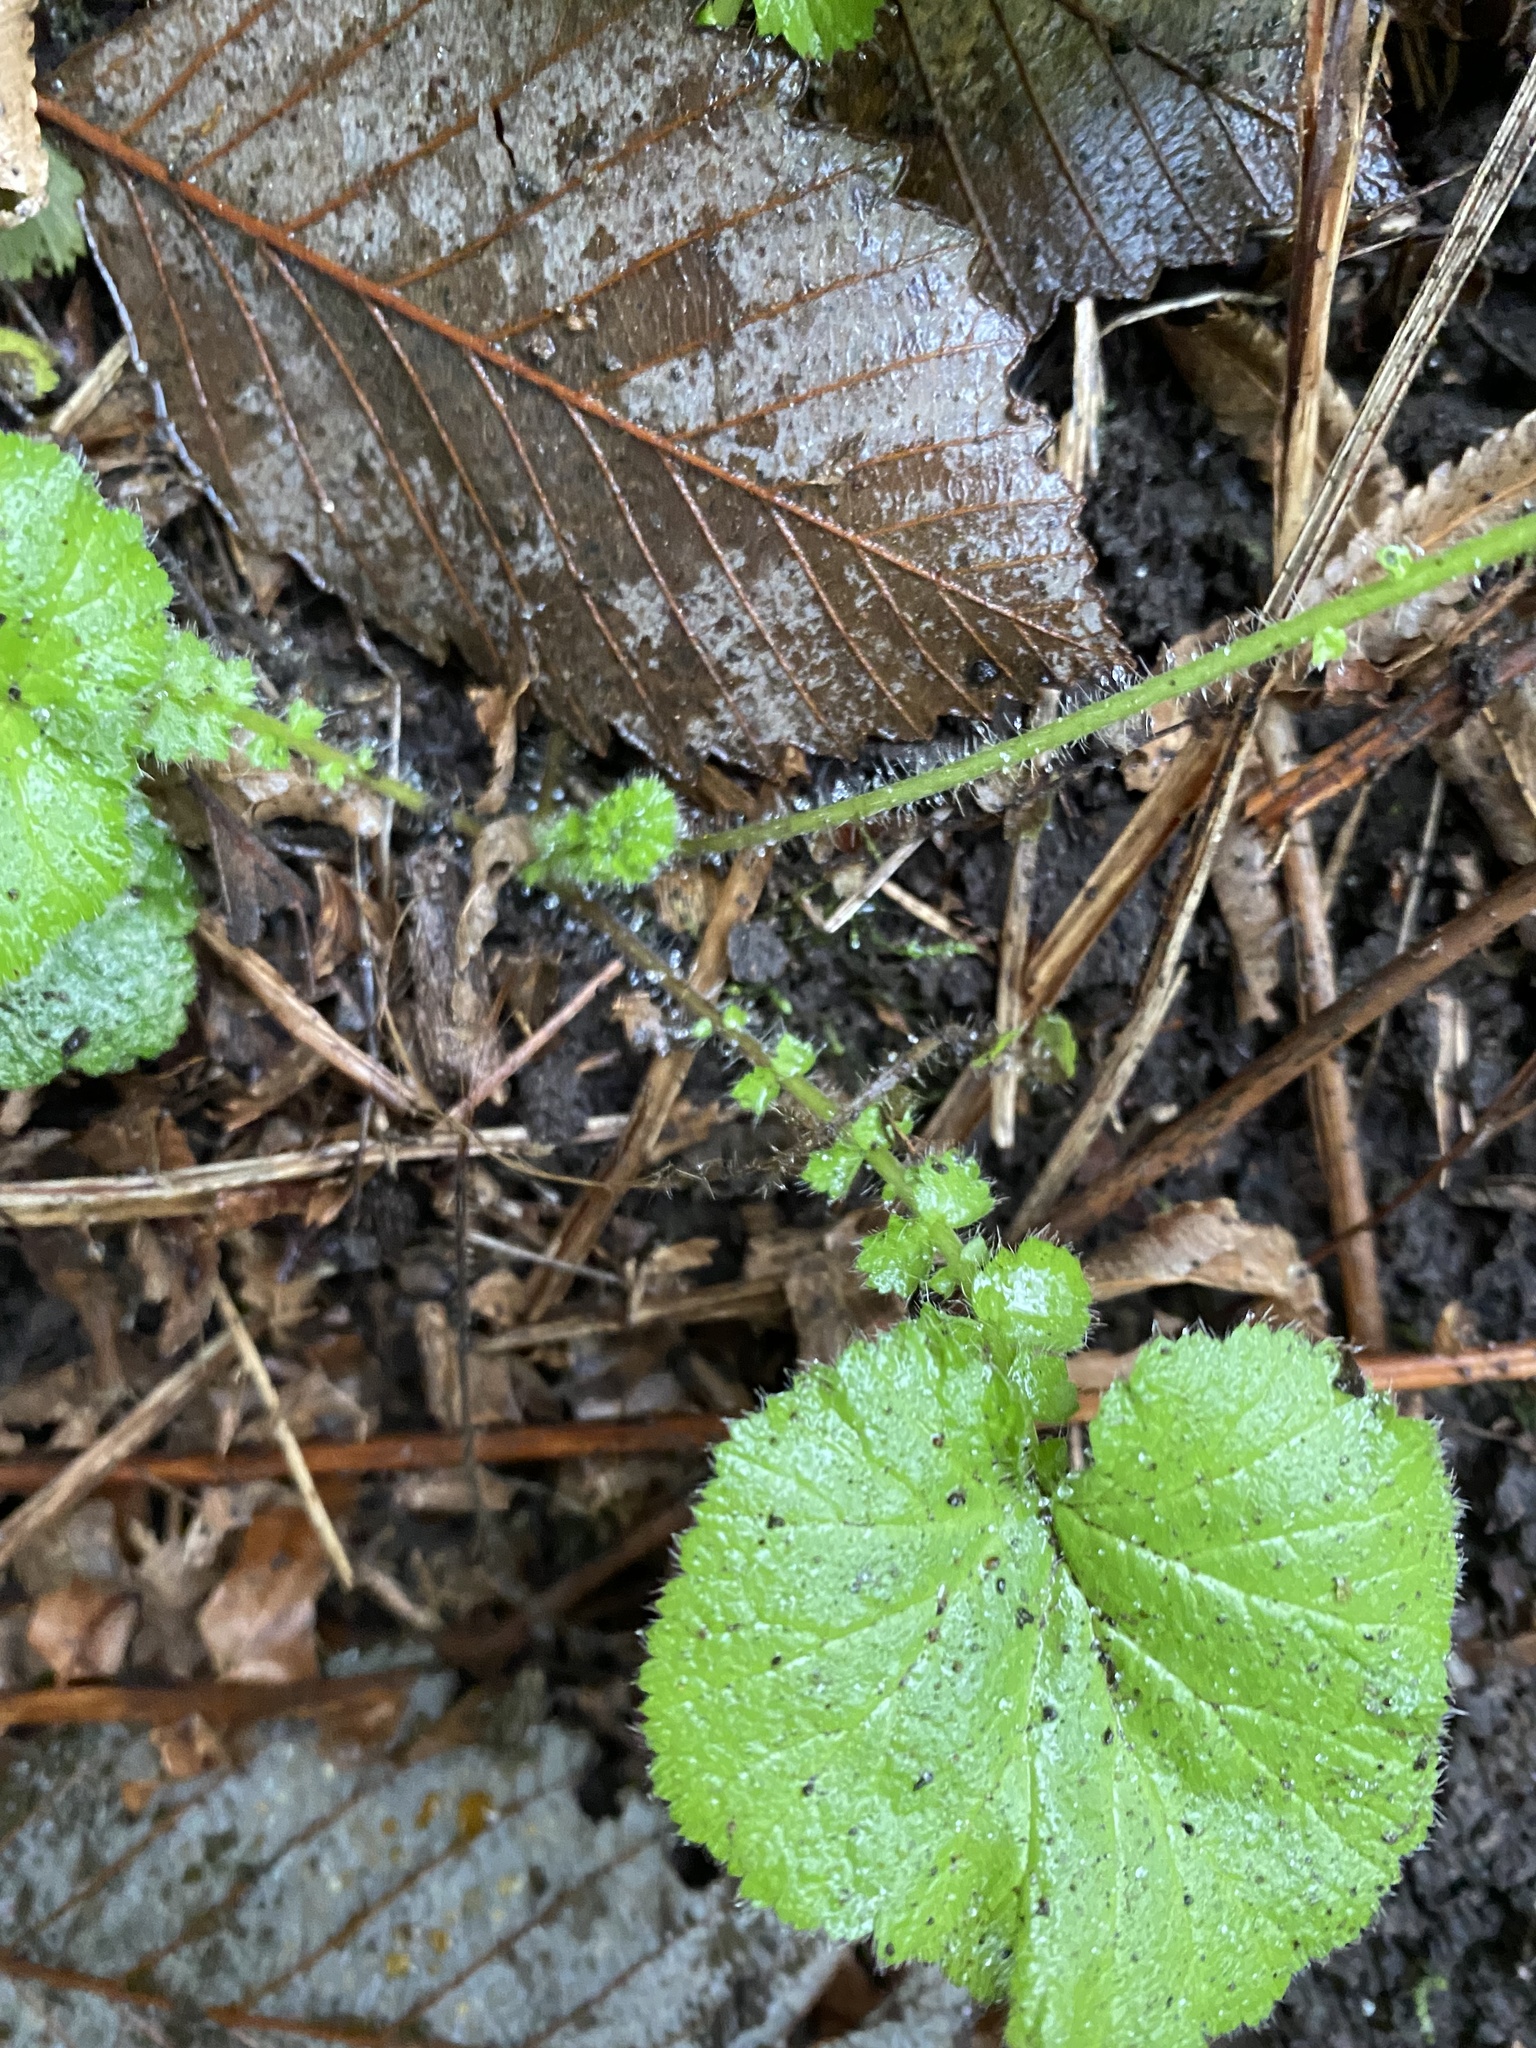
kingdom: Plantae
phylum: Tracheophyta
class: Magnoliopsida
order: Rosales
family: Rosaceae
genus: Geum
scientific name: Geum macrophyllum
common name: Large-leaved avens
